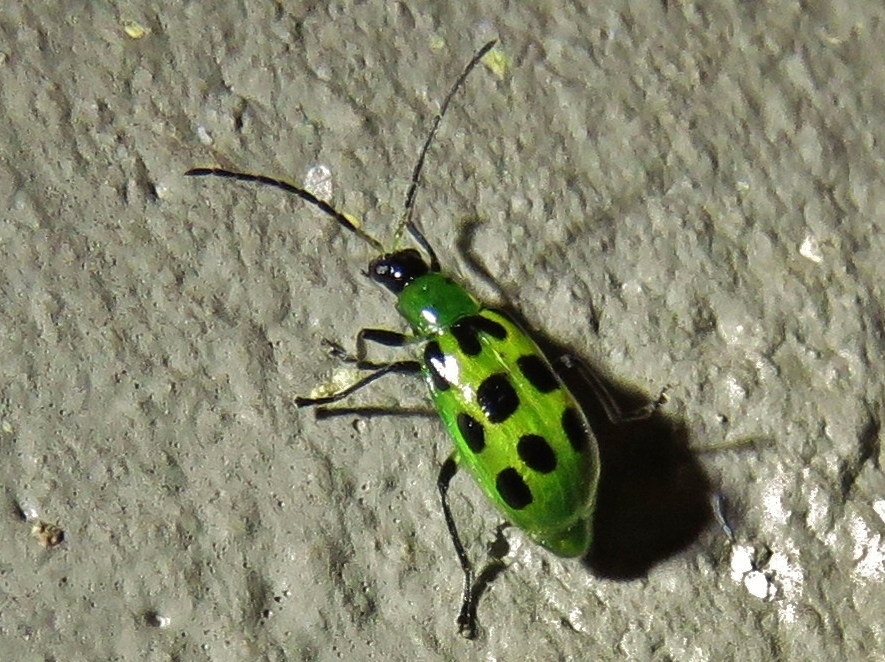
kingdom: Animalia
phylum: Arthropoda
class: Insecta
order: Coleoptera
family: Chrysomelidae
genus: Diabrotica
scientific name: Diabrotica undecimpunctata
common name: Spotted cucumber beetle
